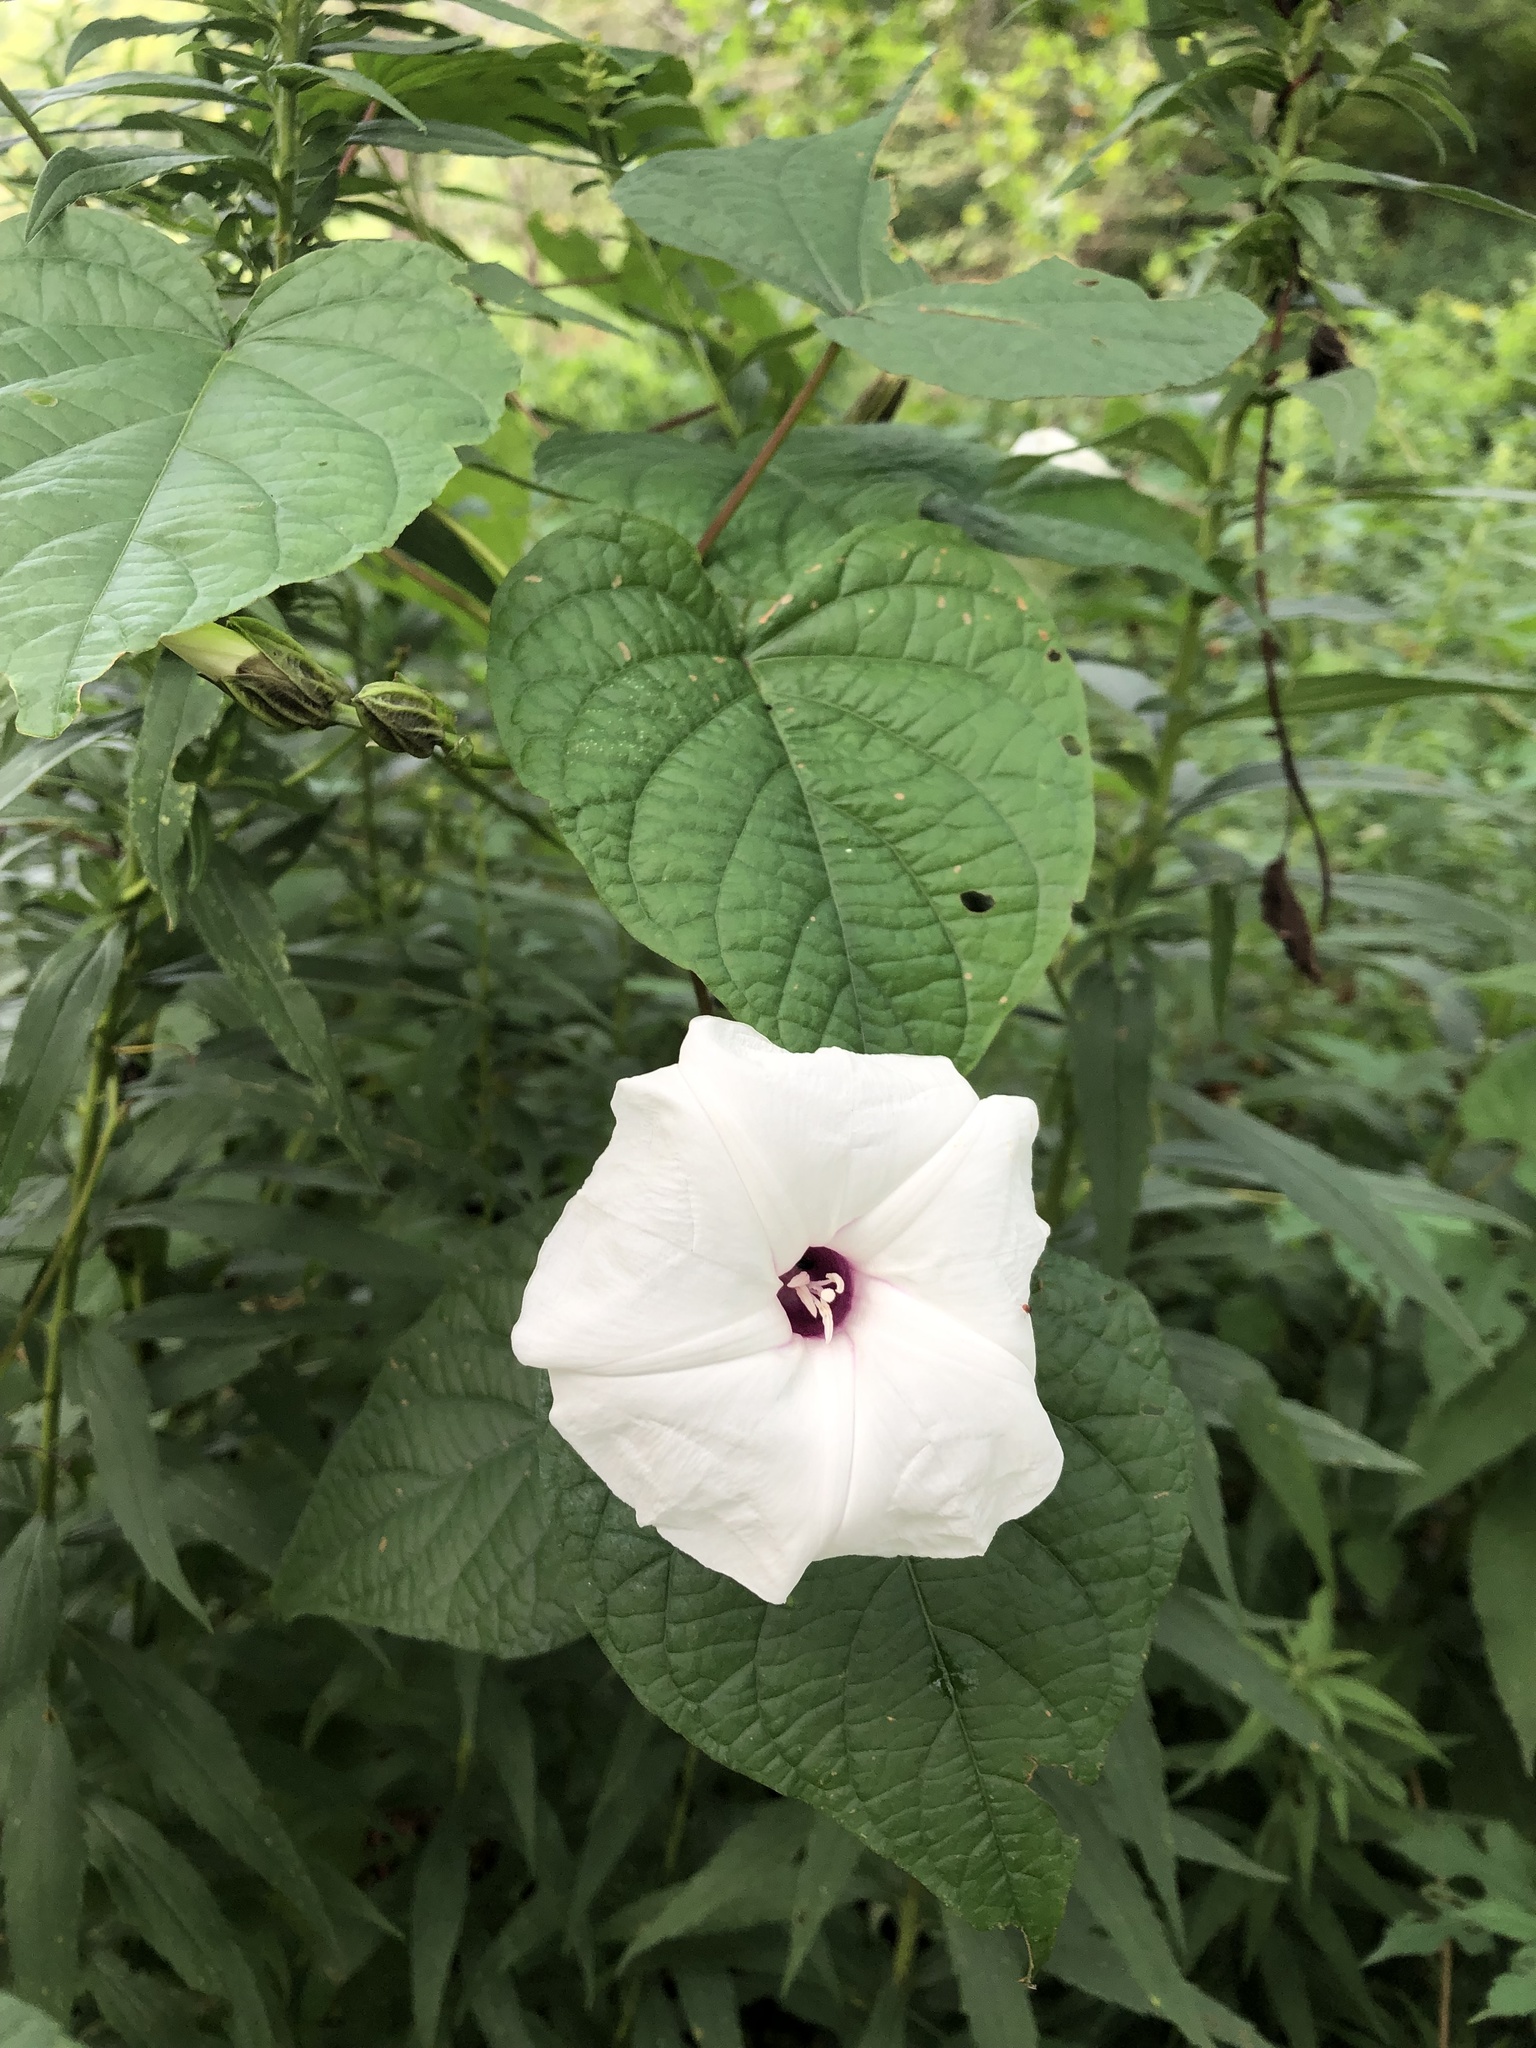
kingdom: Plantae
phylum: Tracheophyta
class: Magnoliopsida
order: Solanales
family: Convolvulaceae
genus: Ipomoea
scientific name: Ipomoea pandurata
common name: Man-of-the-earth
